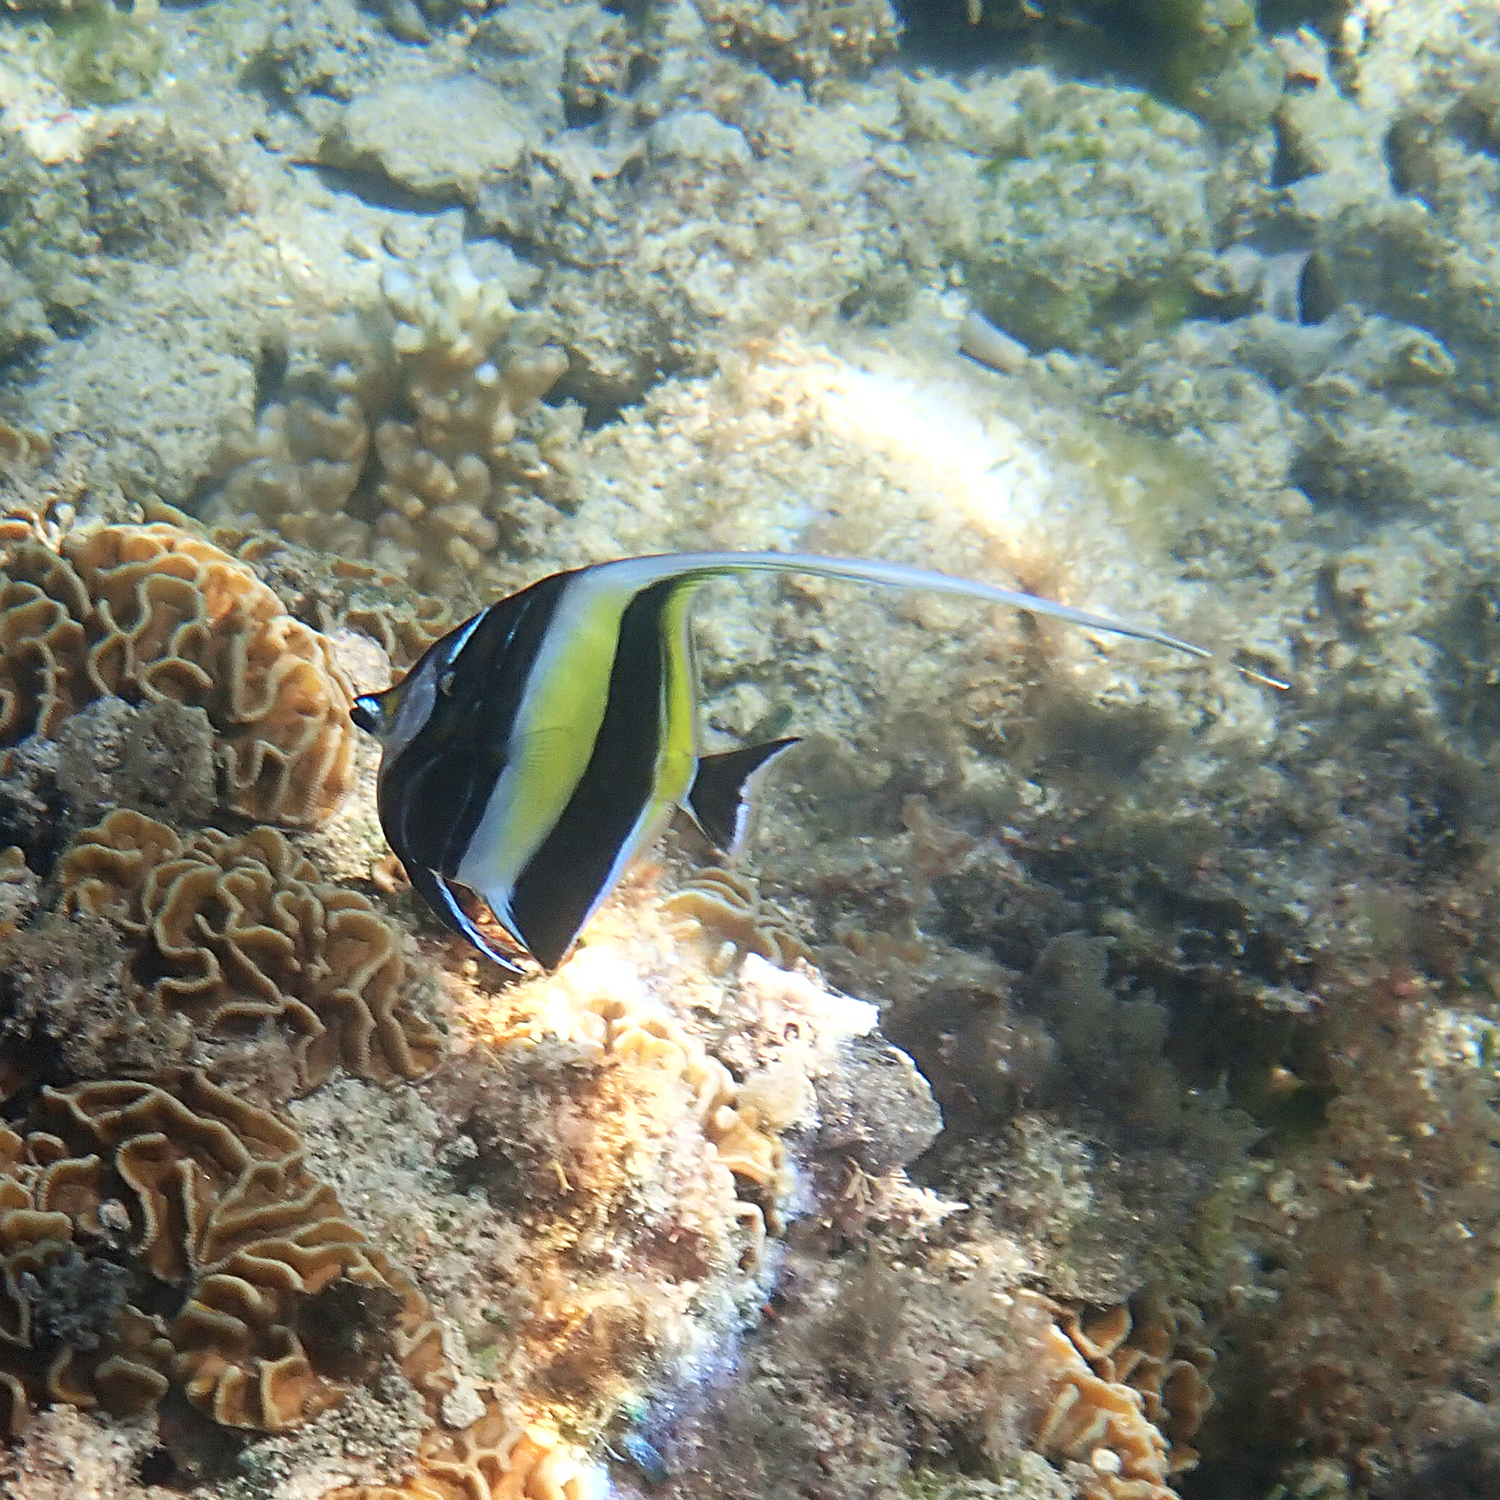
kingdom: Animalia
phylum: Chordata
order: Perciformes
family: Zanclidae
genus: Zanclus
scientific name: Zanclus cornutus
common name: Moorish idol
